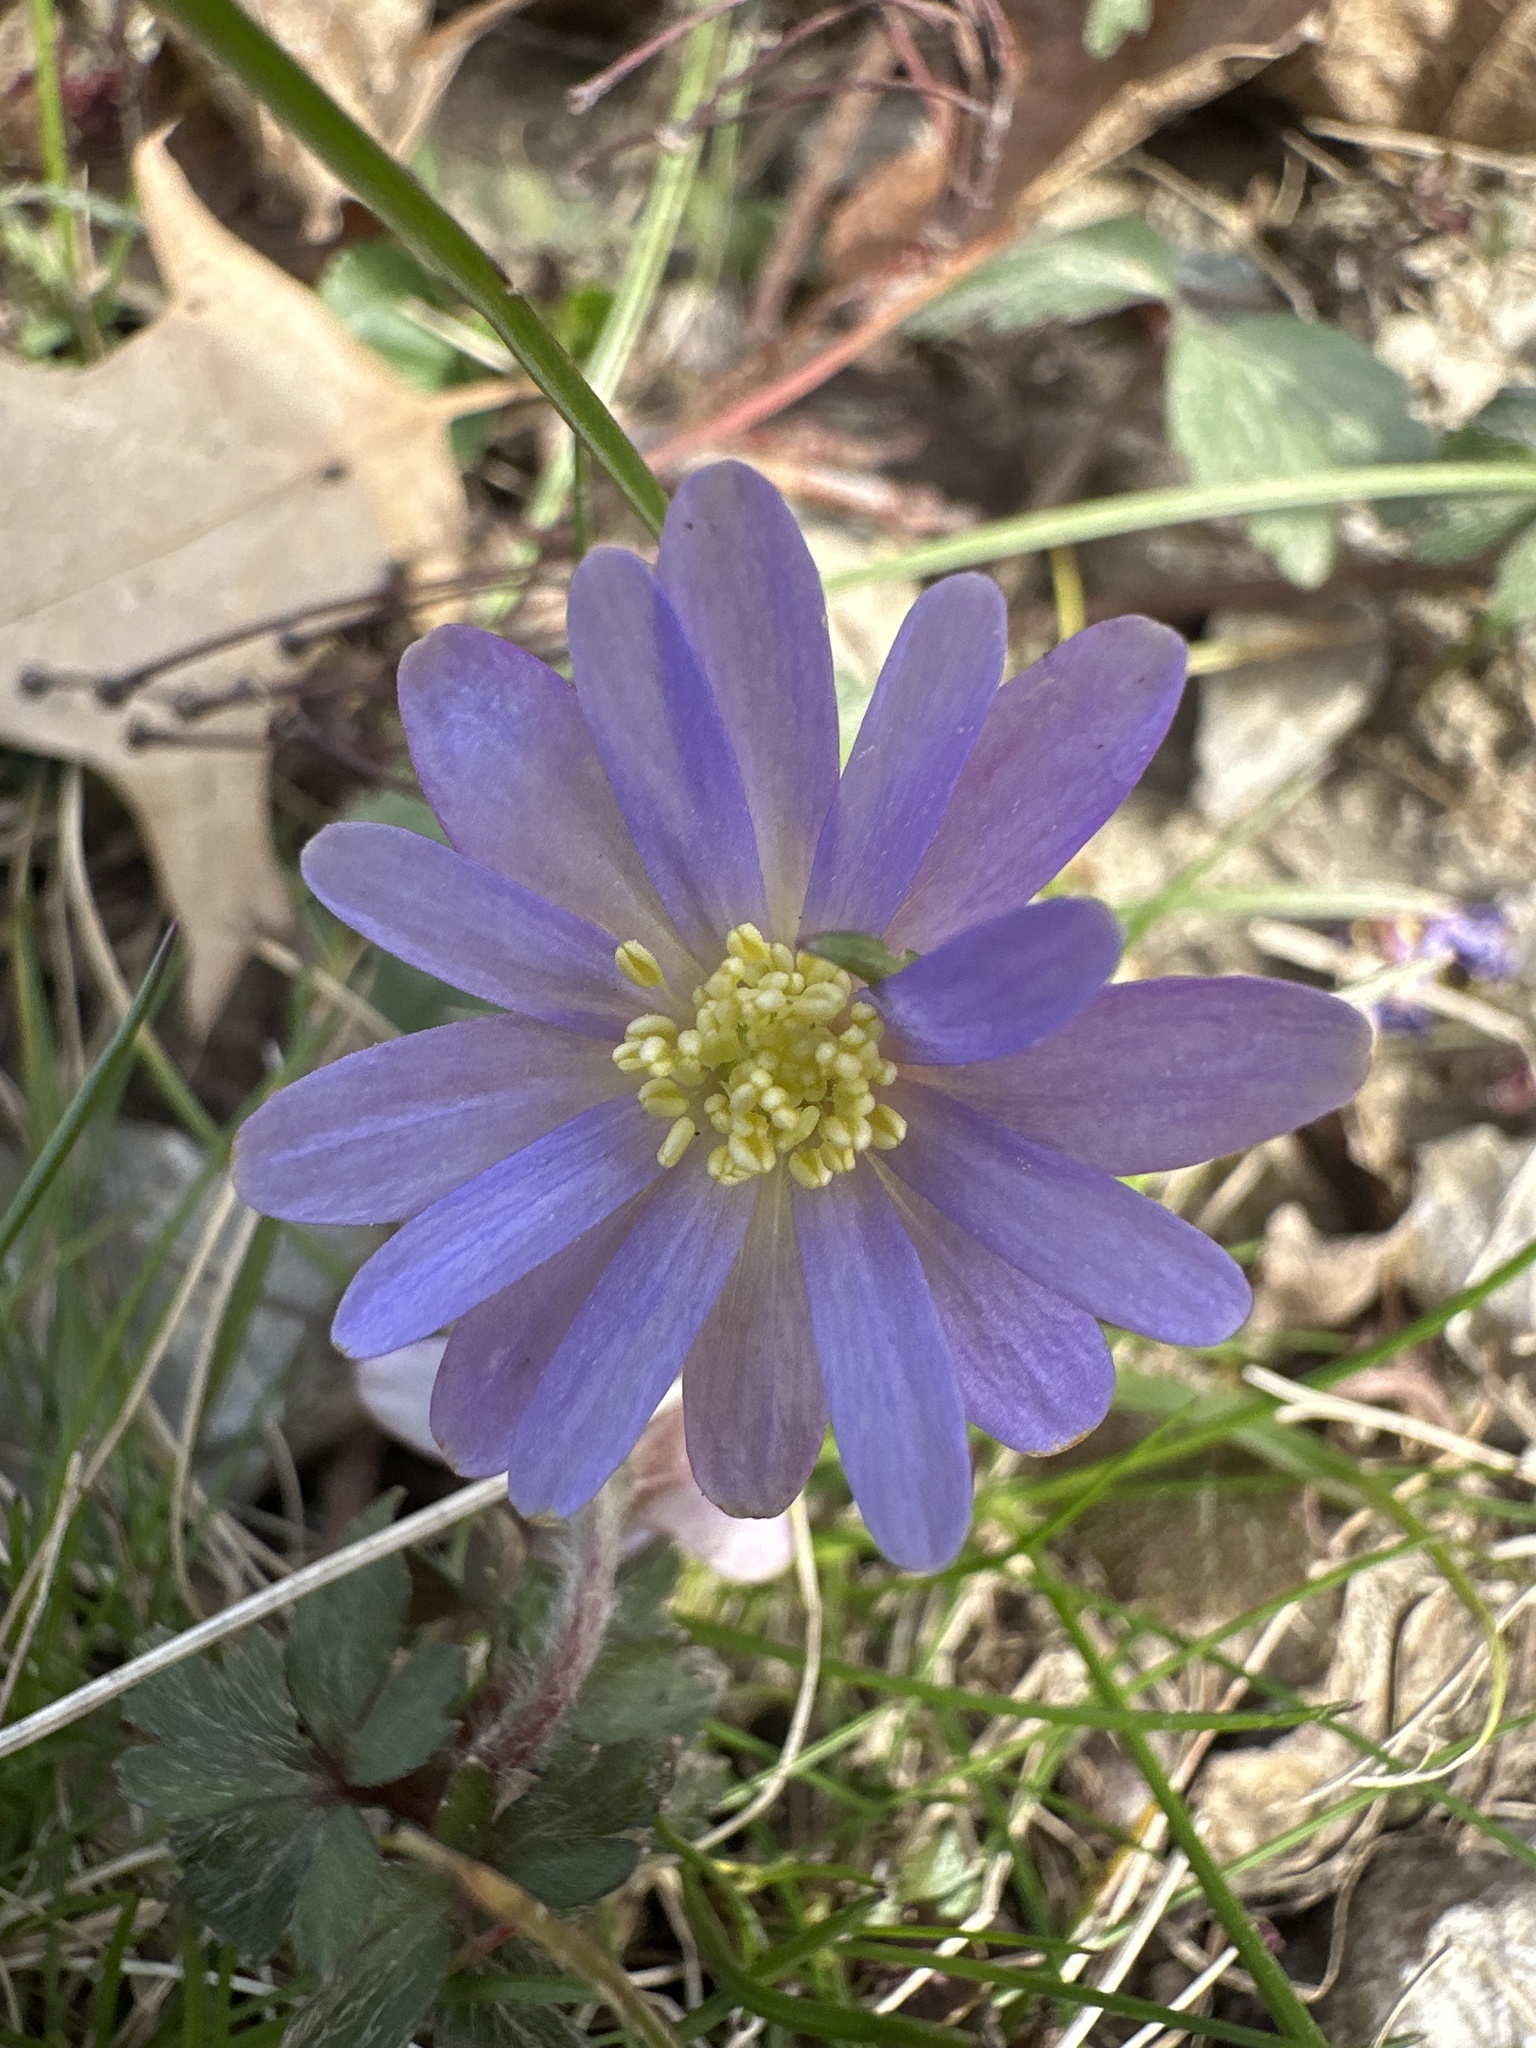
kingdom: Plantae
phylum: Tracheophyta
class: Magnoliopsida
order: Ranunculales
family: Ranunculaceae
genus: Anemone
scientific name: Anemone blanda
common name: Balkan anemone
